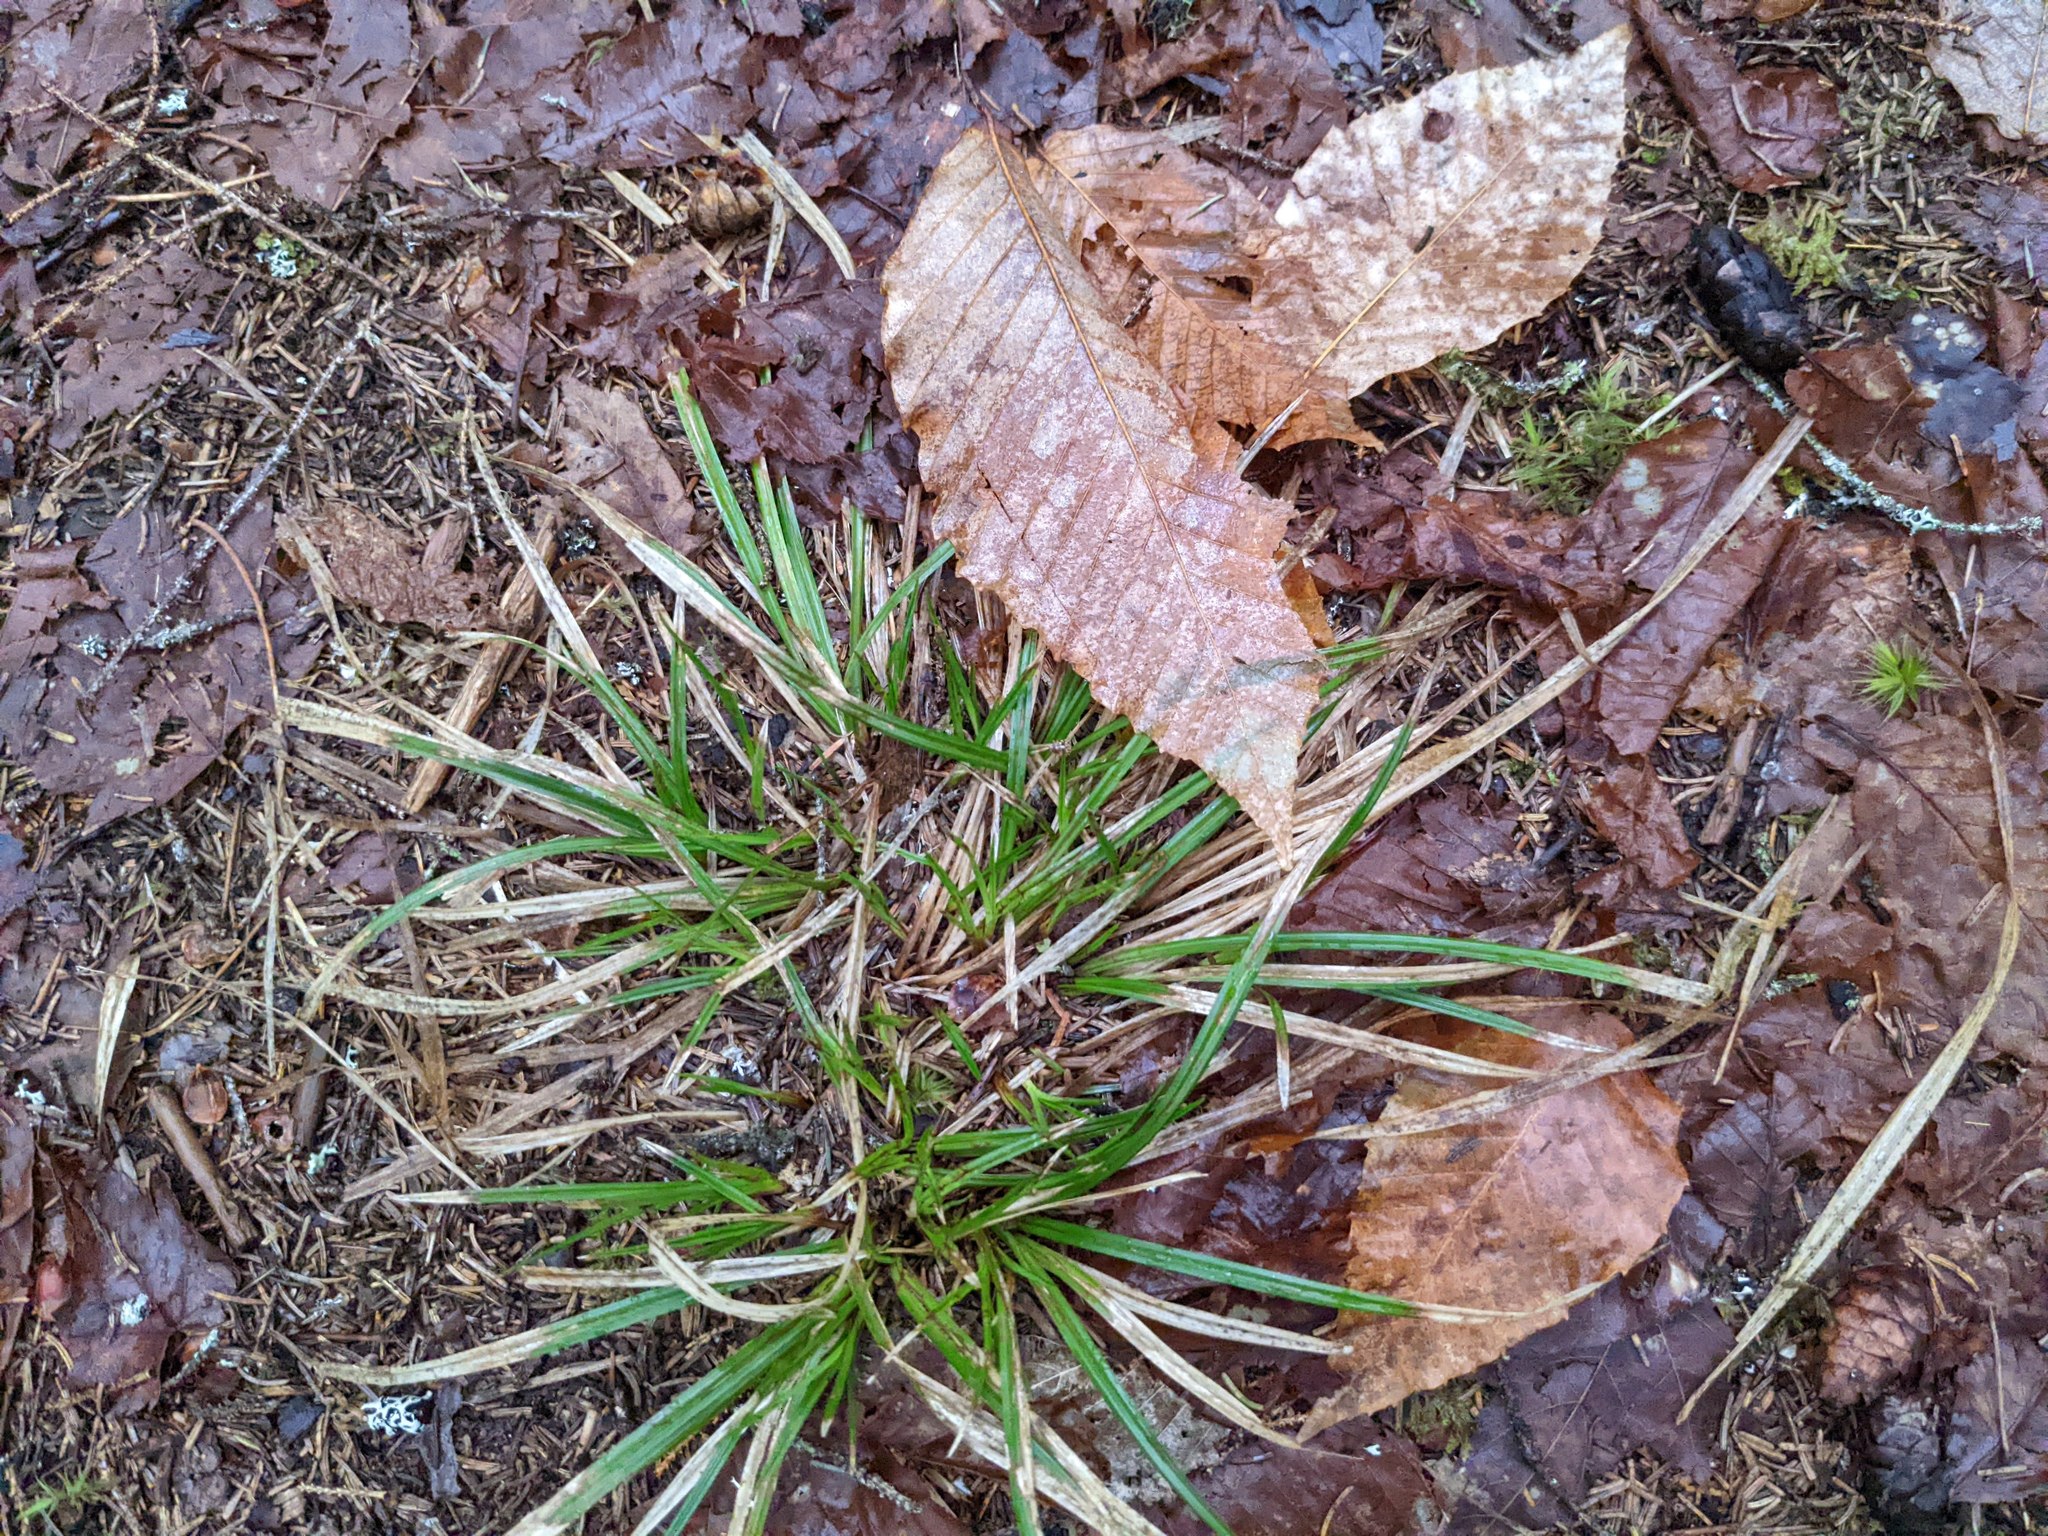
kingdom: Plantae
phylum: Tracheophyta
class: Magnoliopsida
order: Fagales
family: Fagaceae
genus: Fagus
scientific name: Fagus grandifolia
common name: American beech
